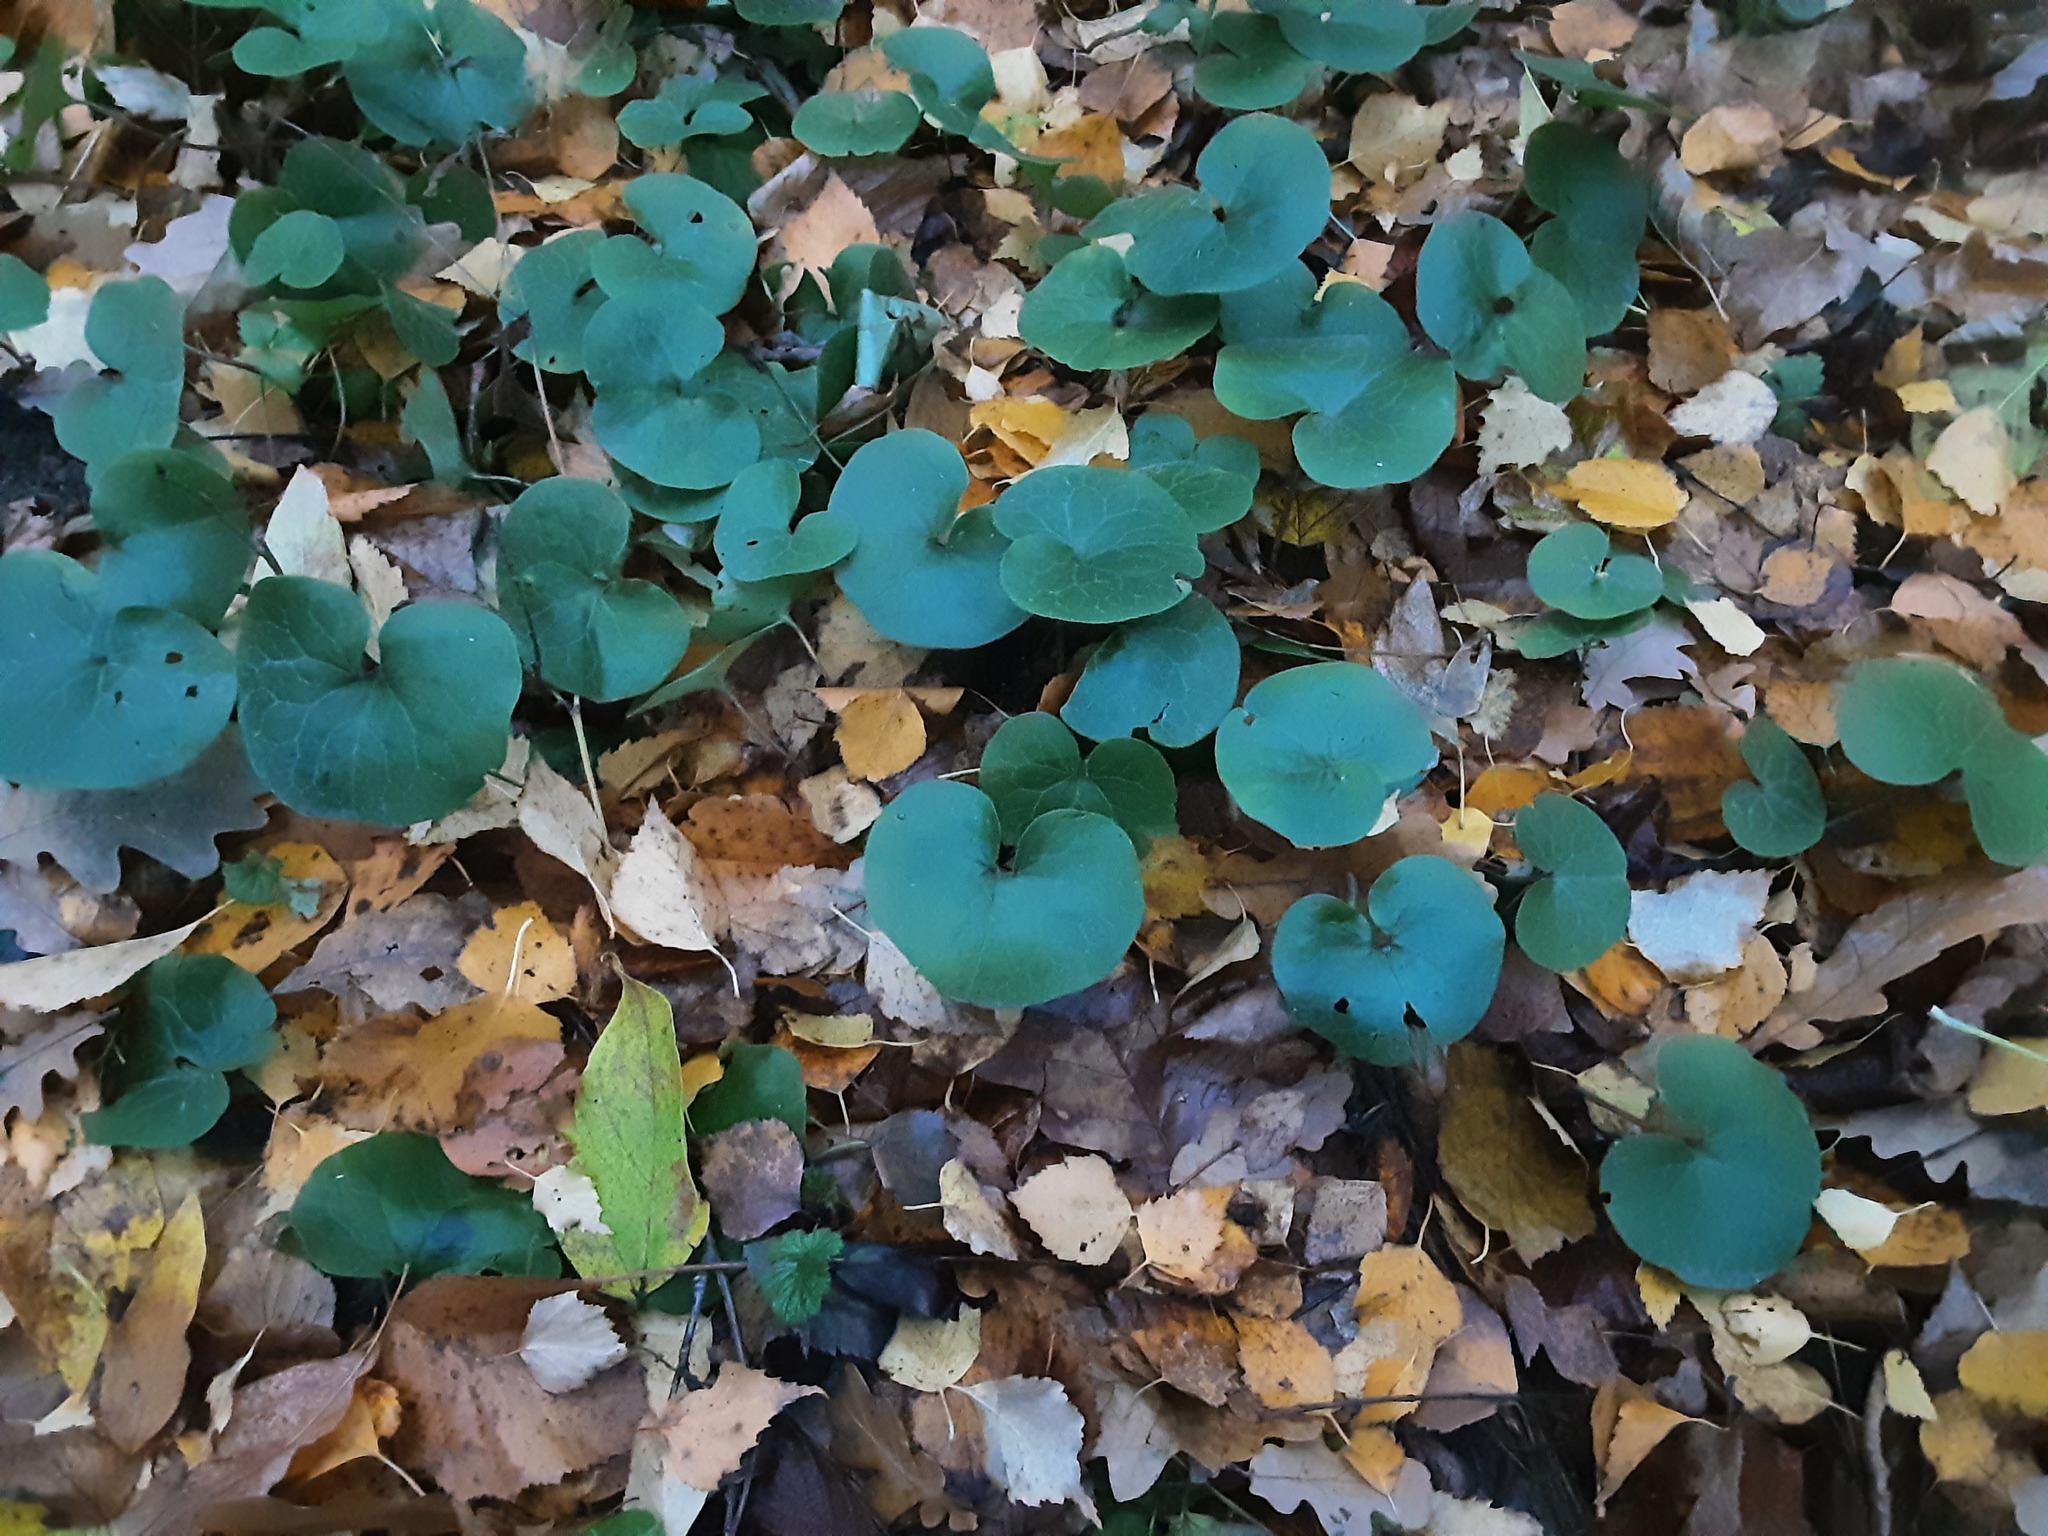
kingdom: Plantae
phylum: Tracheophyta
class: Magnoliopsida
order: Piperales
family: Aristolochiaceae
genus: Asarum
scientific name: Asarum europaeum
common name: Asarabacca
